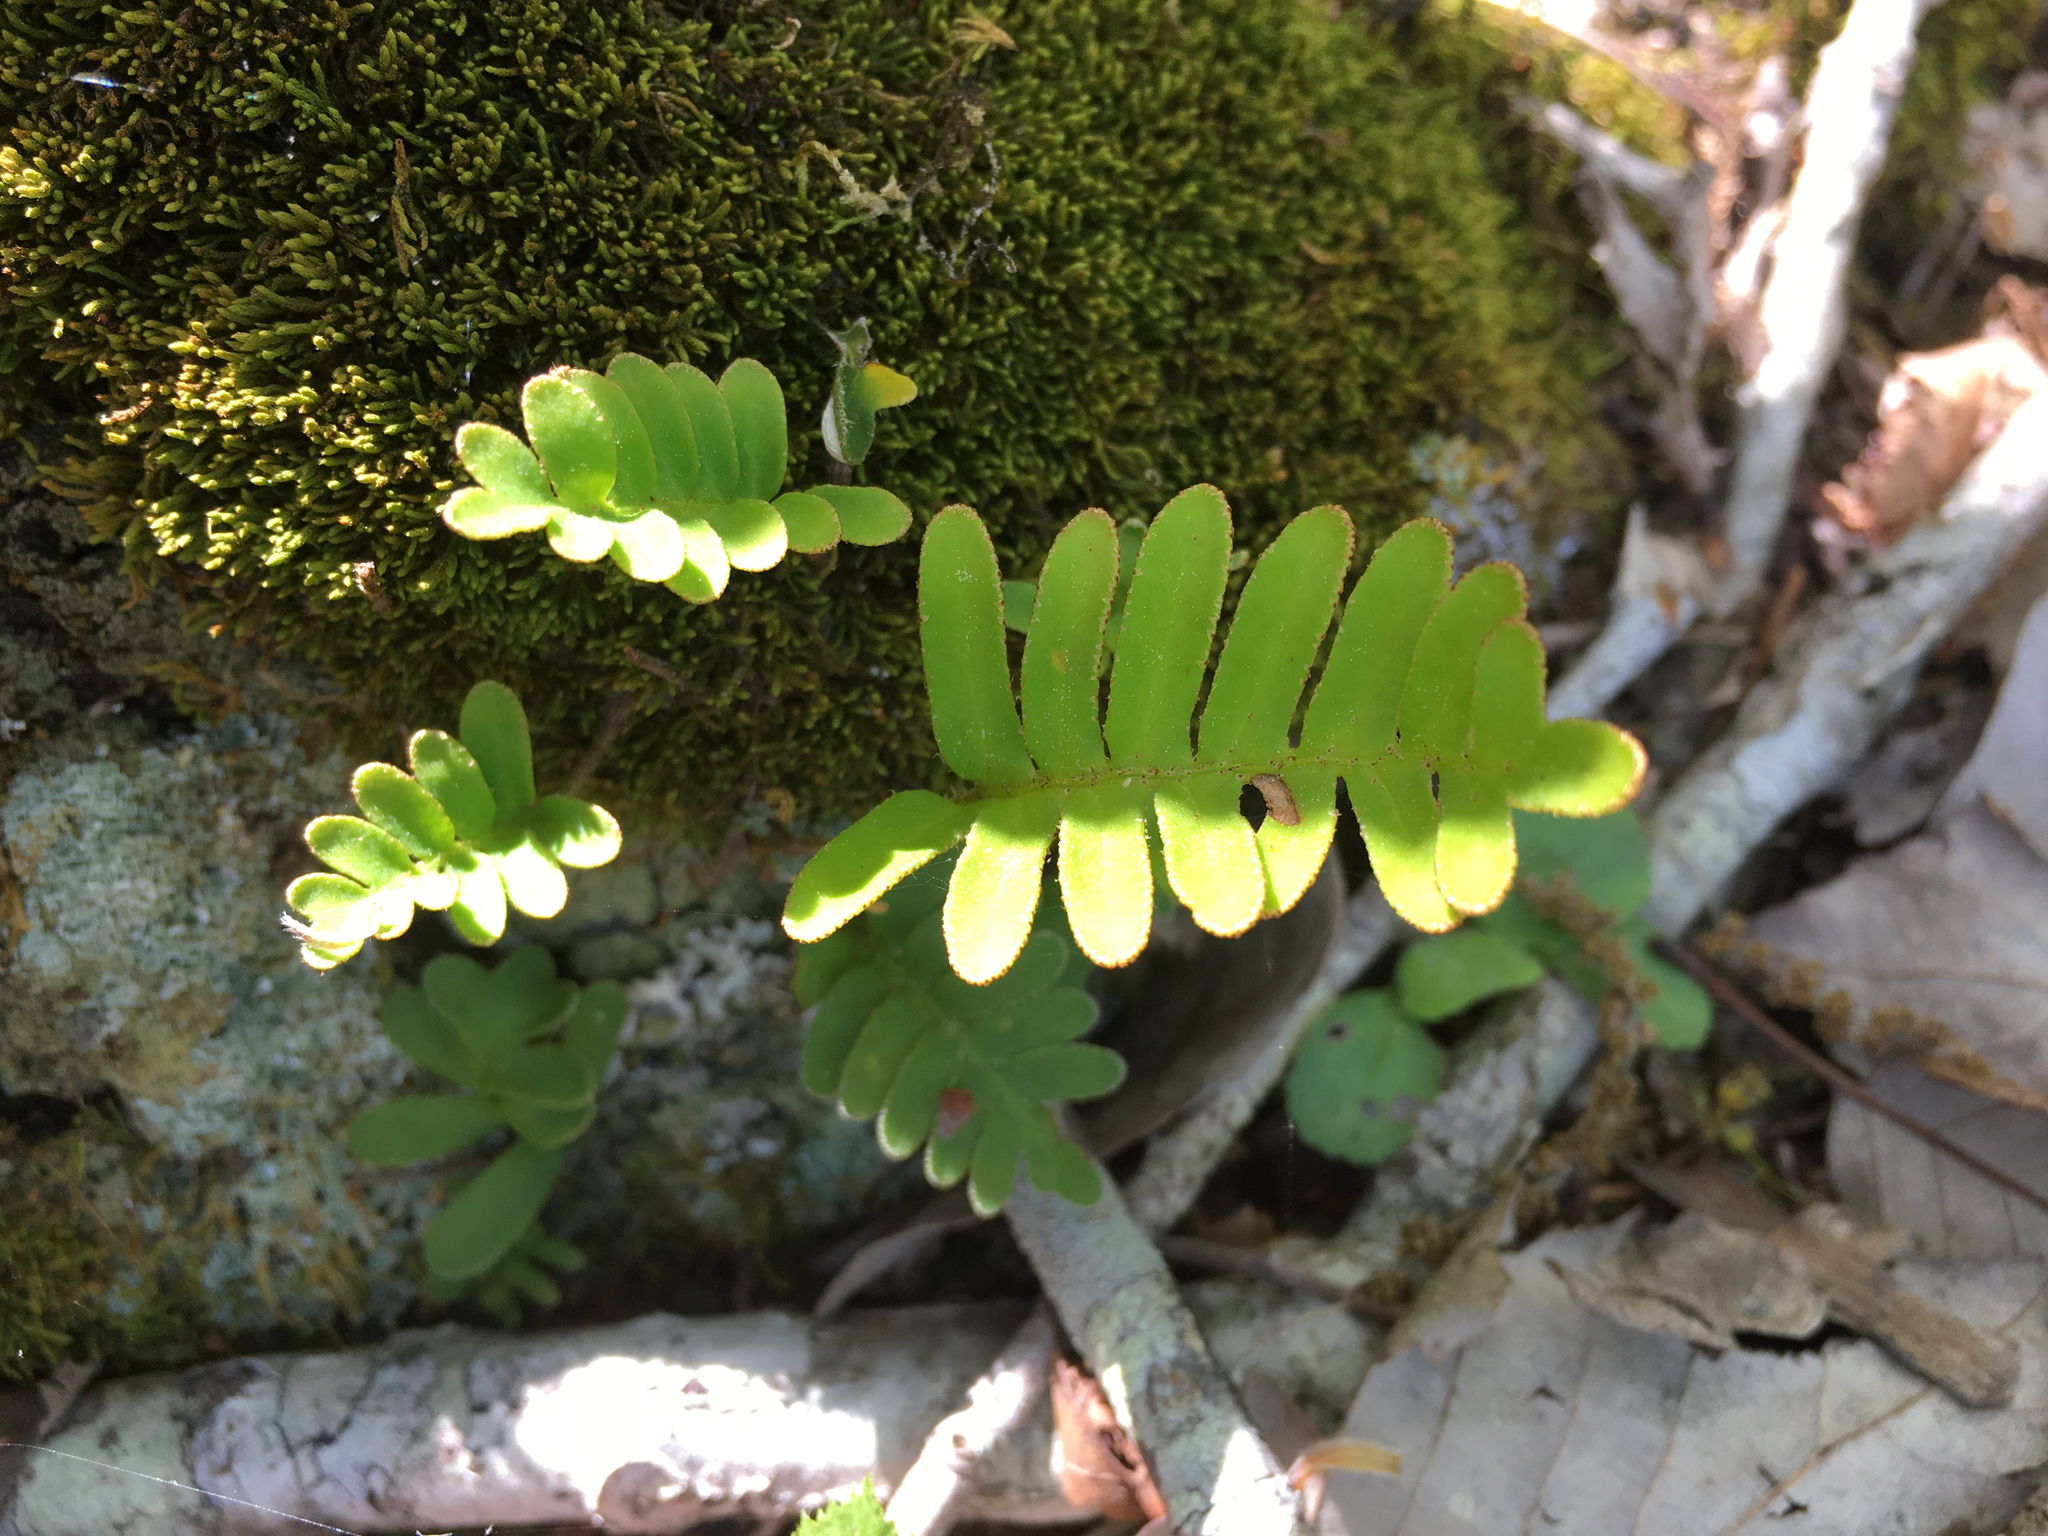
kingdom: Plantae
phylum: Tracheophyta
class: Polypodiopsida
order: Polypodiales
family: Polypodiaceae
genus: Pleopeltis
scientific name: Pleopeltis michauxiana
